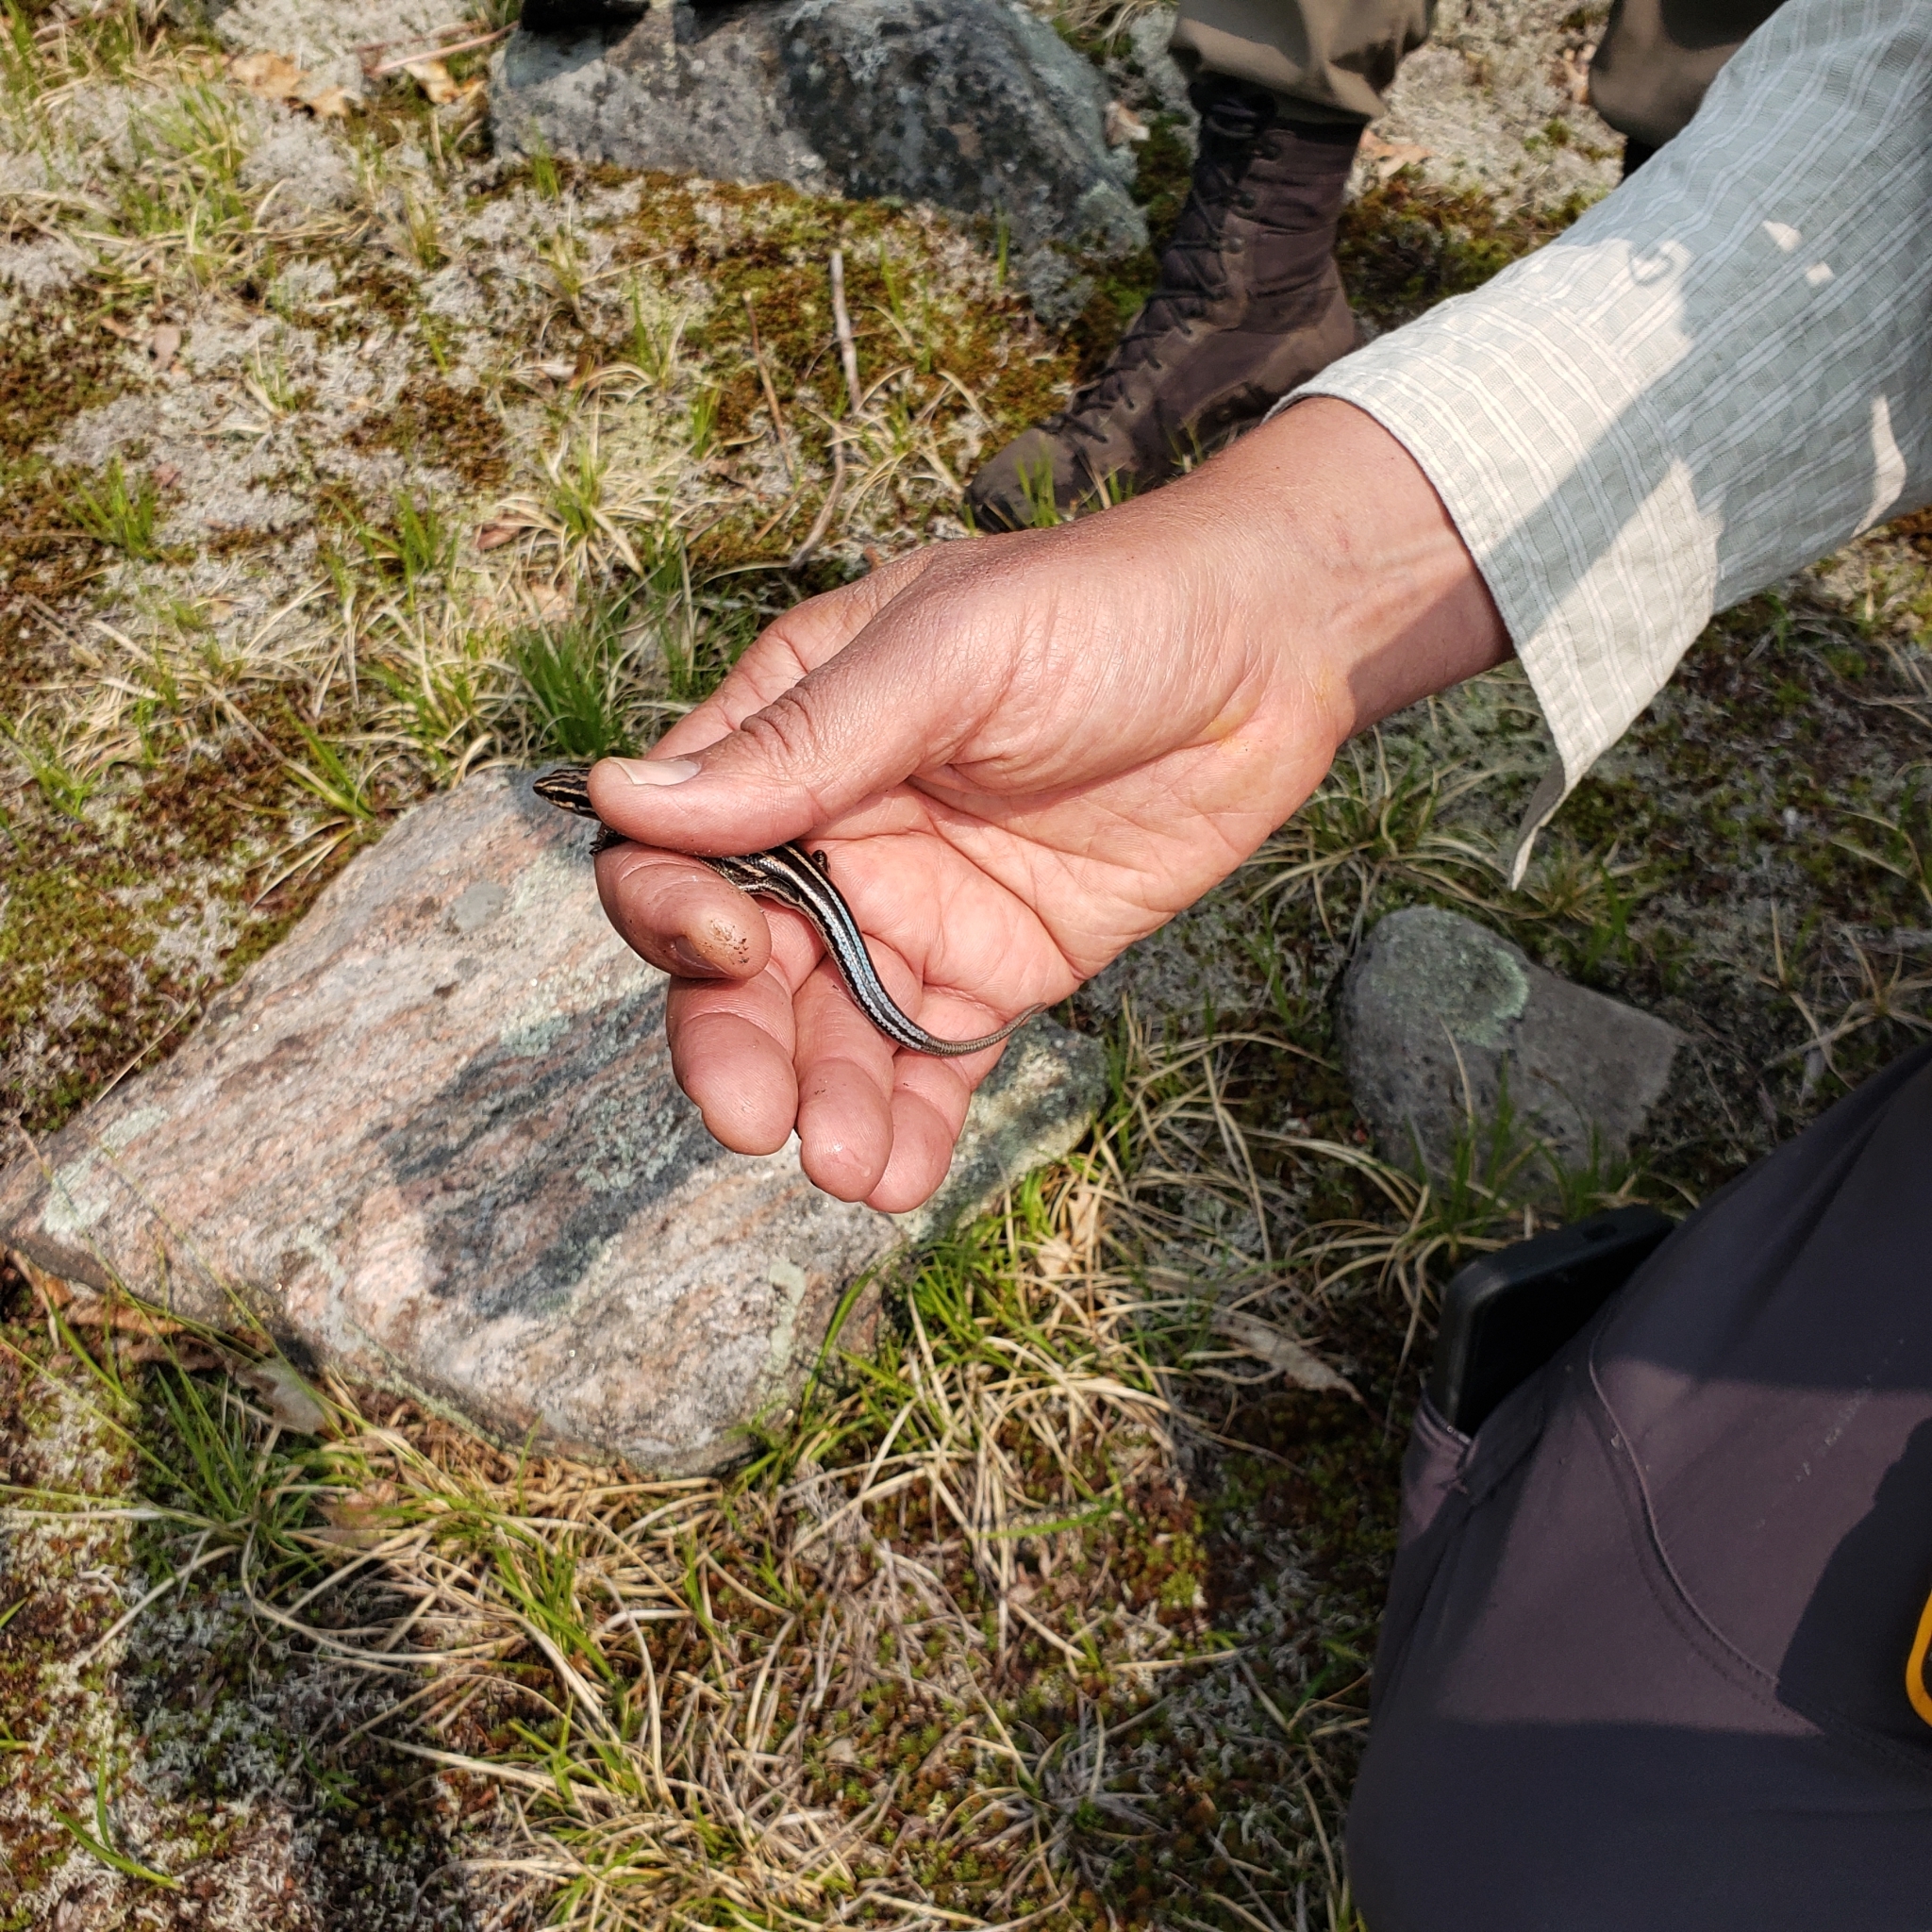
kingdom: Animalia
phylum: Chordata
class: Squamata
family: Scincidae
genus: Plestiodon
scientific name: Plestiodon fasciatus
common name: Five-lined skink
